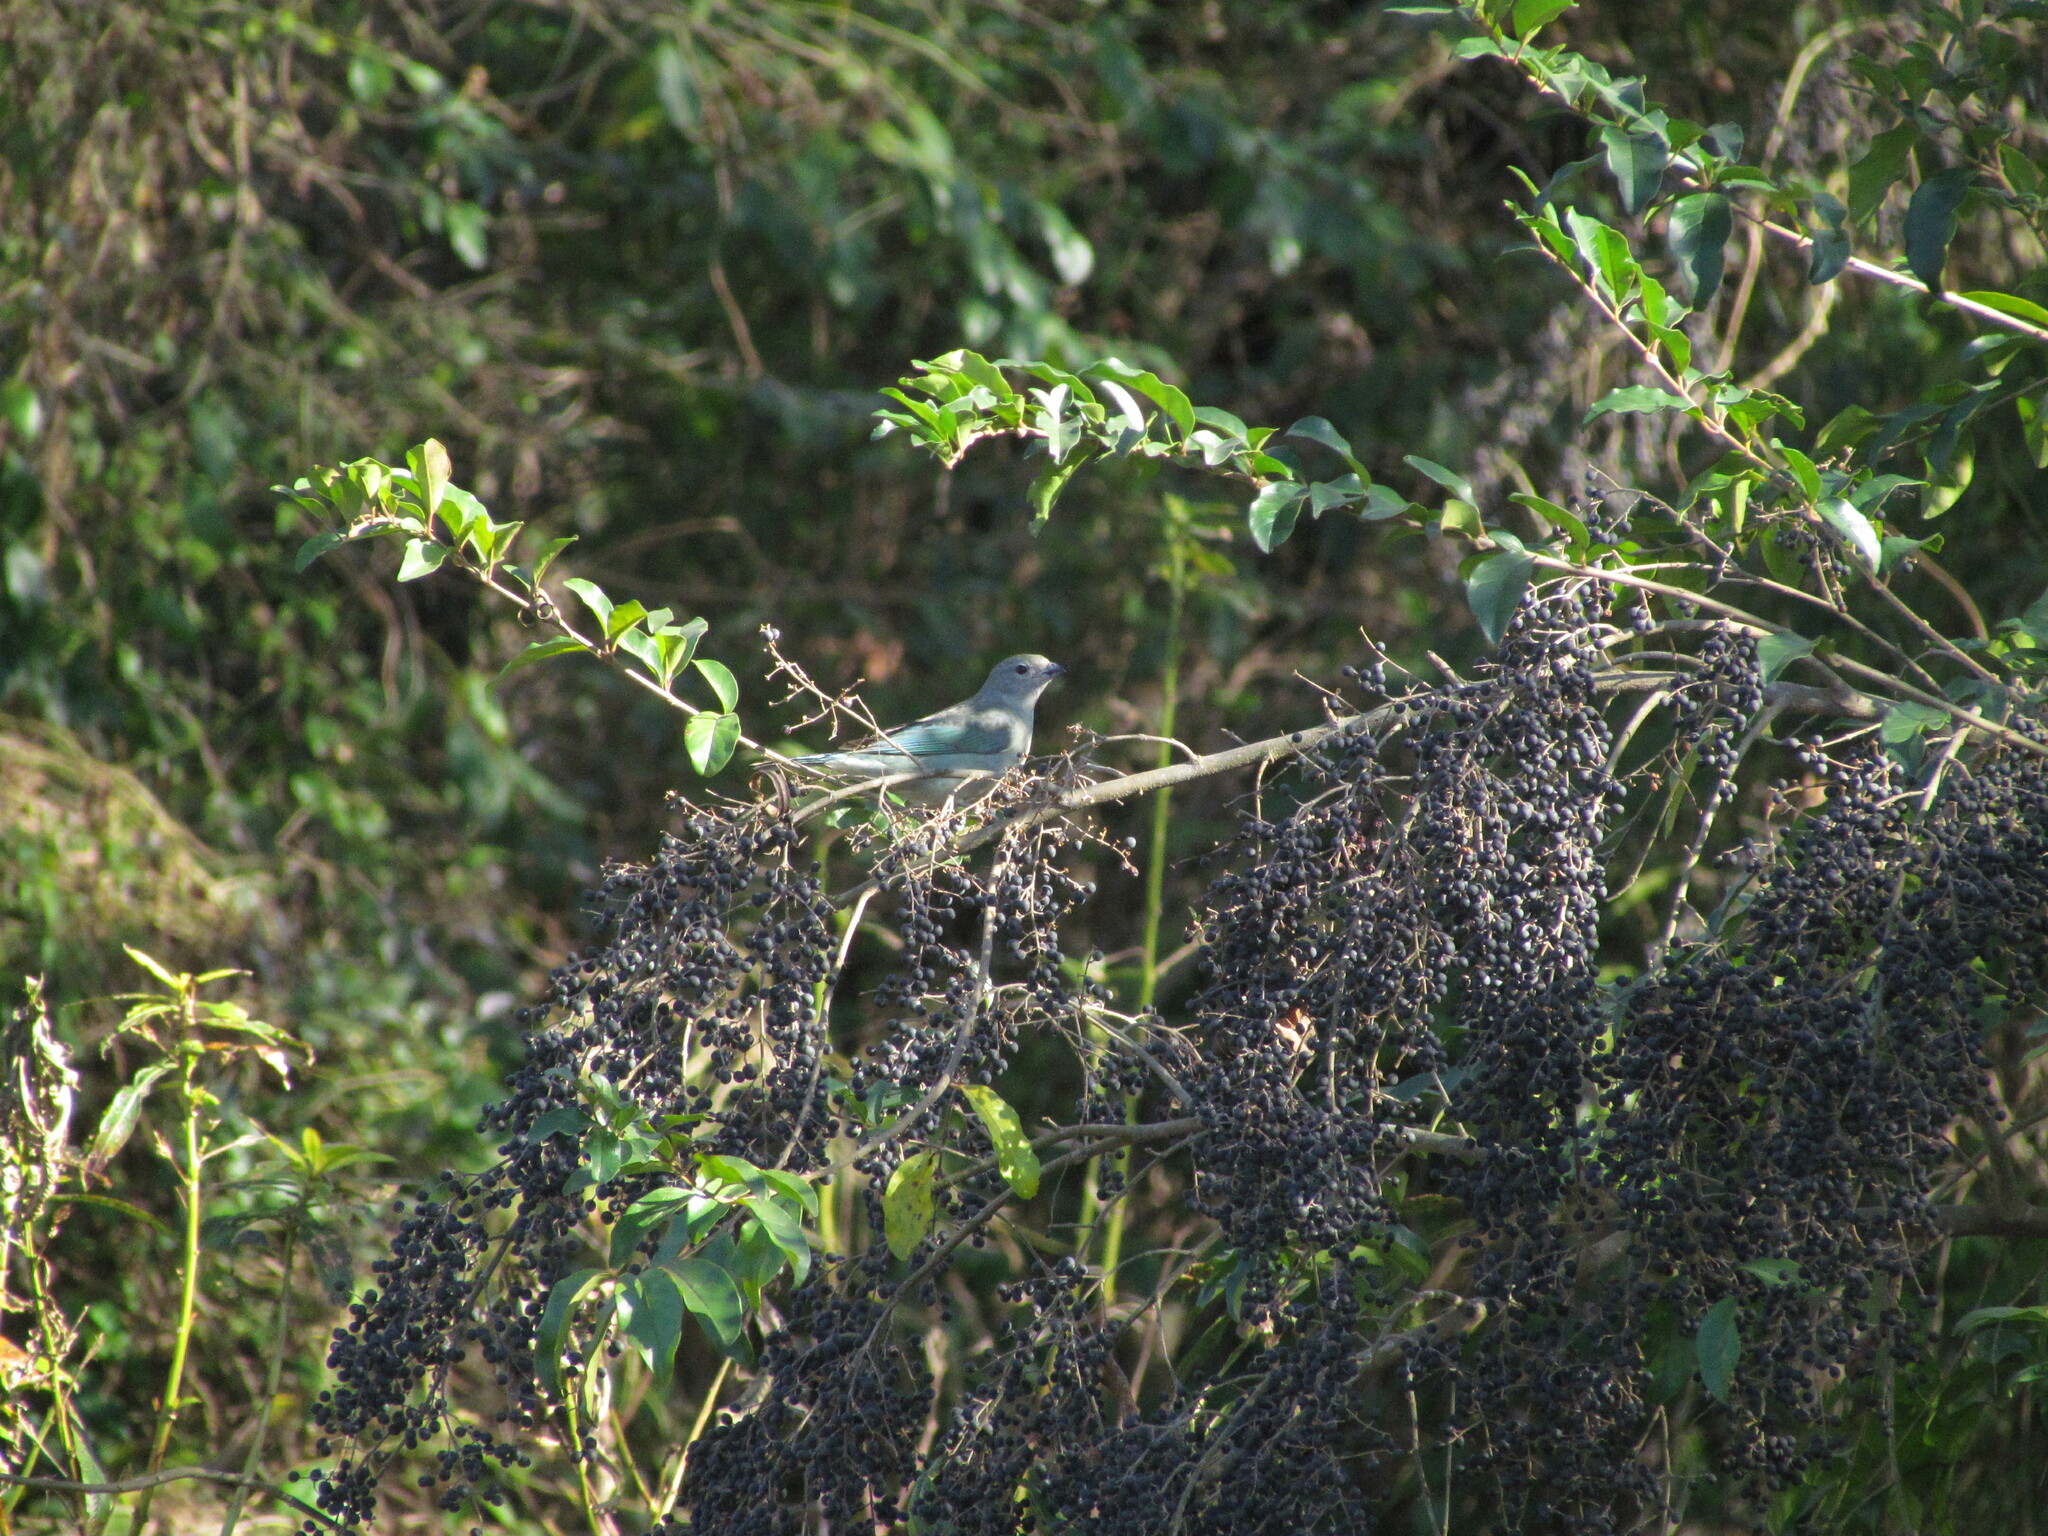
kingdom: Animalia
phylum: Chordata
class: Aves
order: Passeriformes
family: Thraupidae
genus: Thraupis
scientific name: Thraupis sayaca
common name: Sayaca tanager
